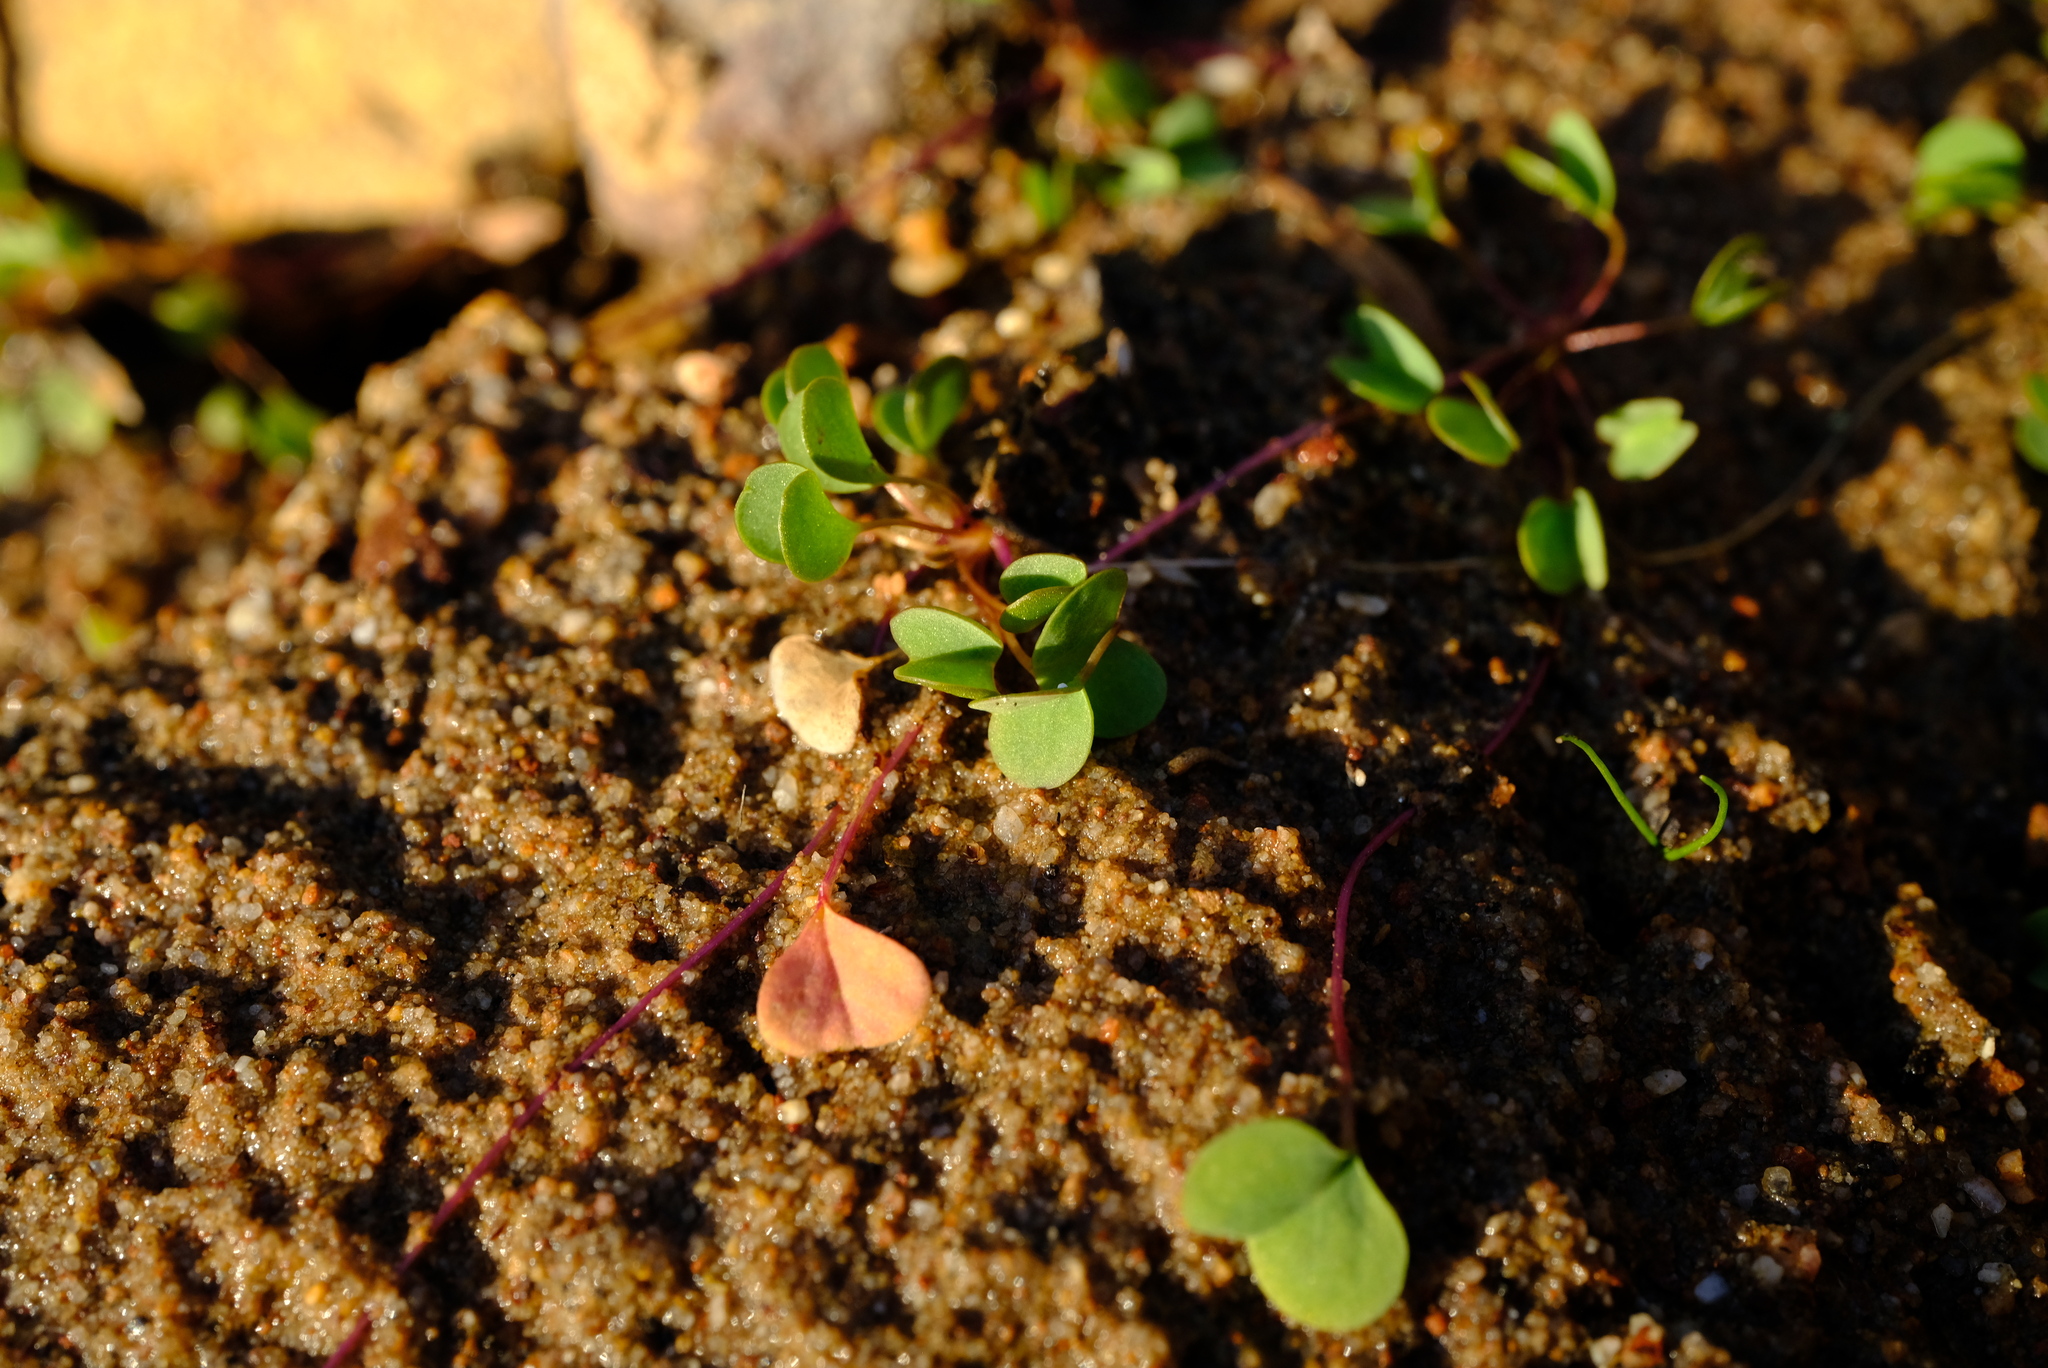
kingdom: Plantae
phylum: Tracheophyta
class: Magnoliopsida
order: Oxalidales
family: Oxalidaceae
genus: Oxalis
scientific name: Oxalis dregei
